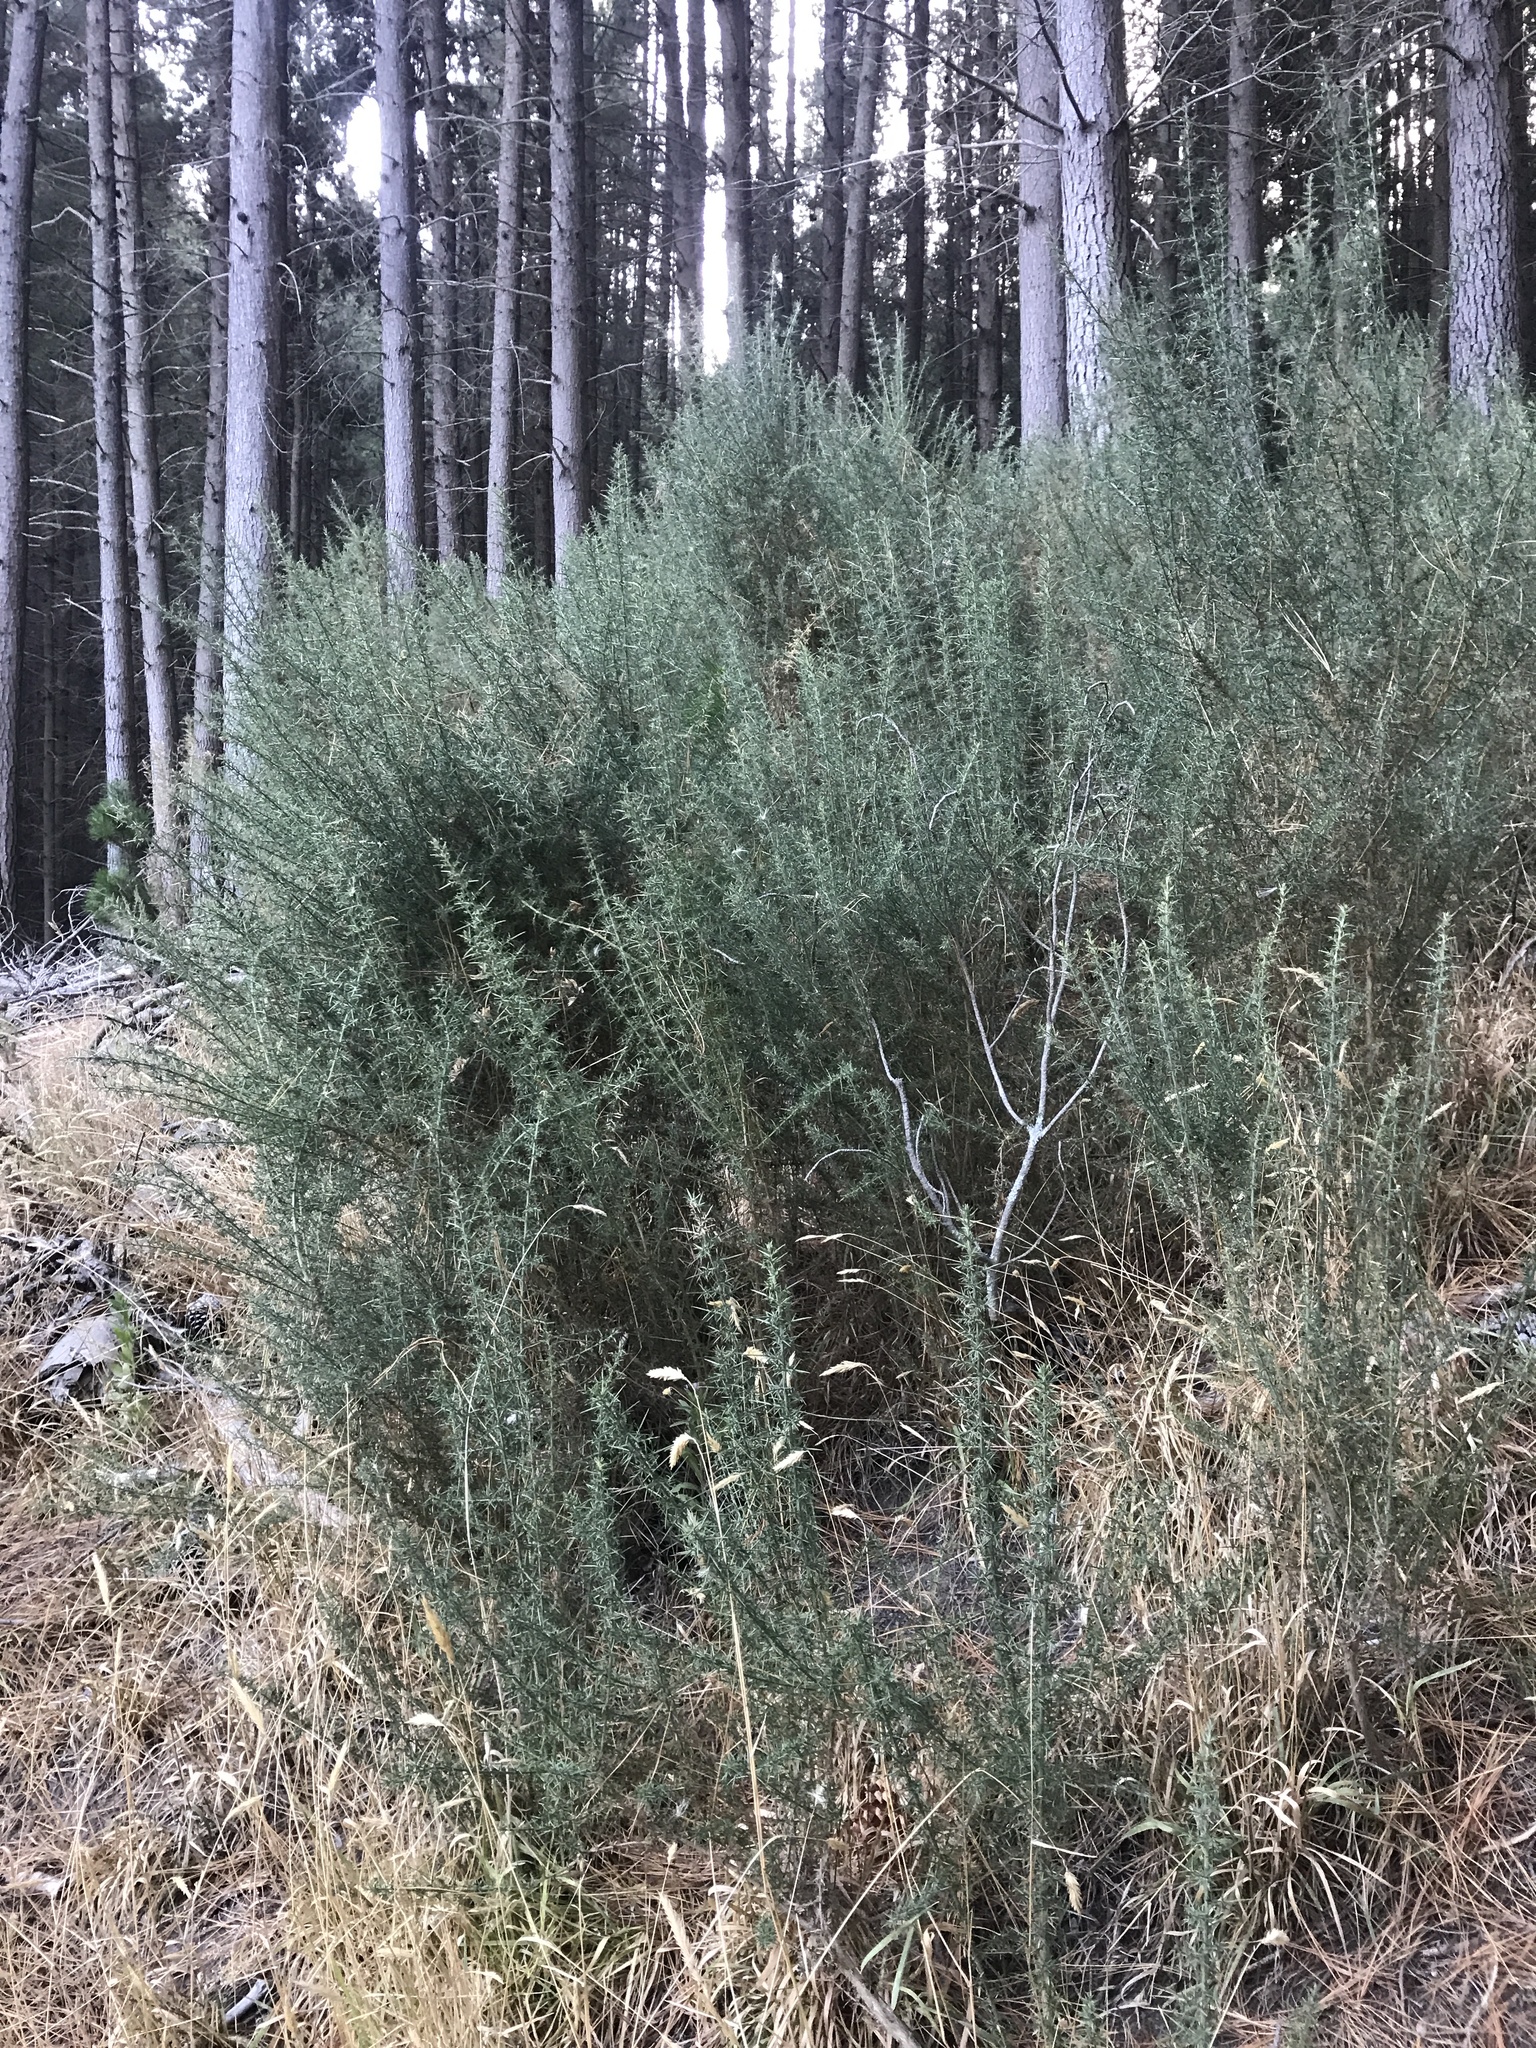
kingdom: Plantae
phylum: Tracheophyta
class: Magnoliopsida
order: Fabales
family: Fabaceae
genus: Ulex
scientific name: Ulex europaeus
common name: Common gorse
